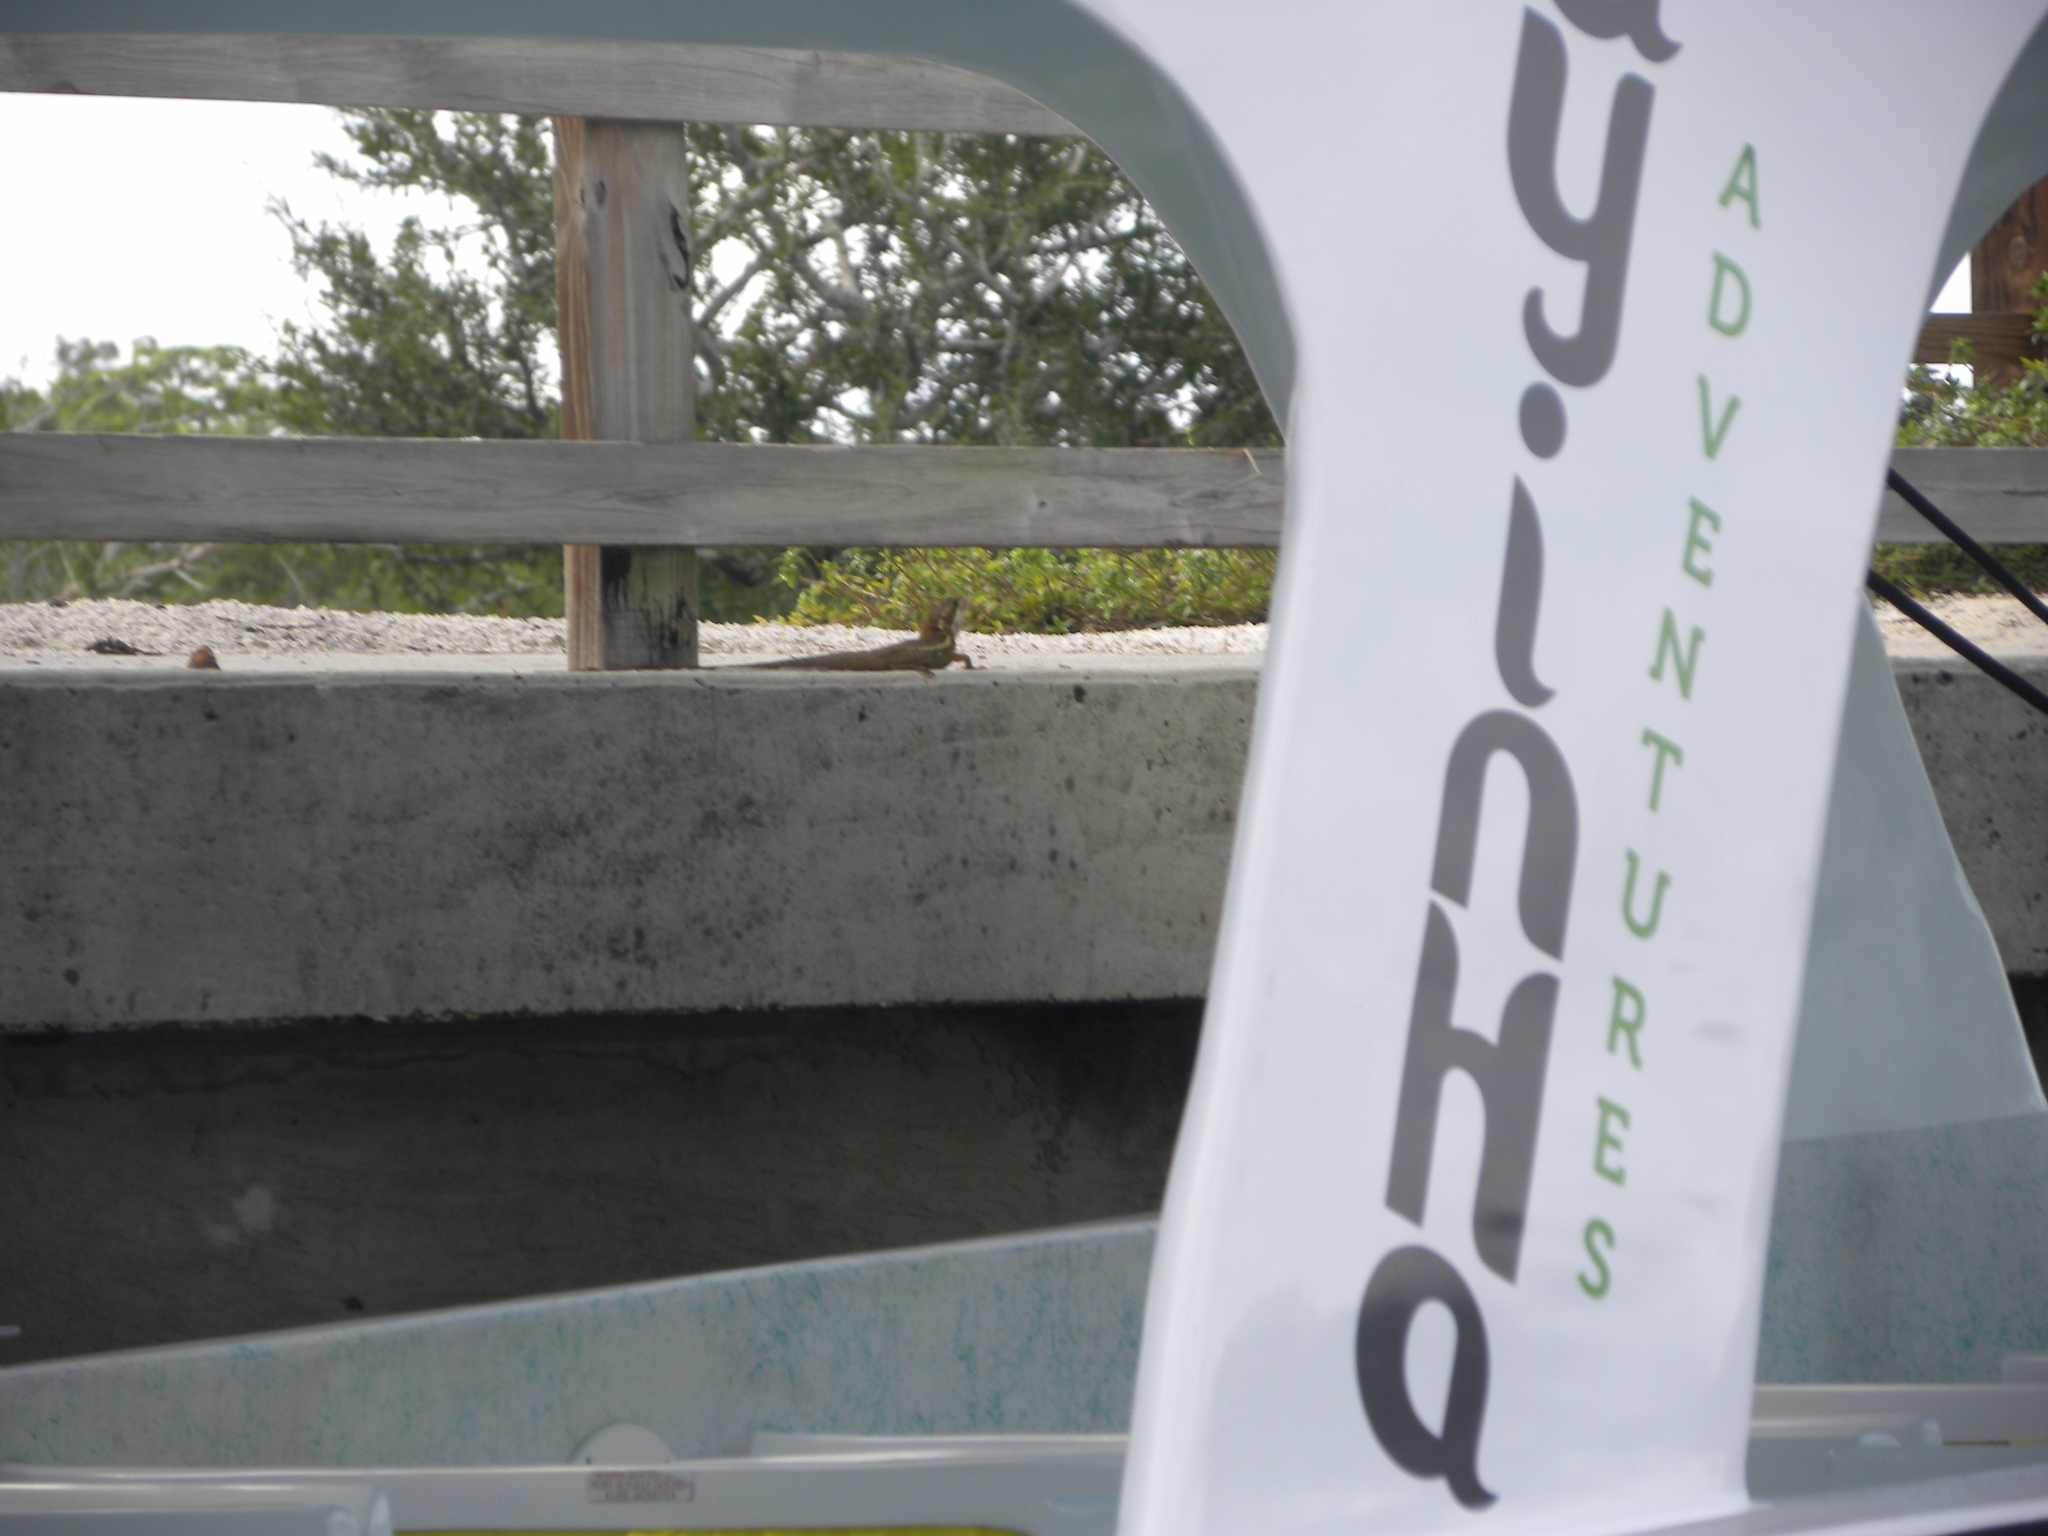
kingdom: Animalia
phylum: Chordata
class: Squamata
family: Corytophanidae
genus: Basiliscus
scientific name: Basiliscus vittatus
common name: Brown basilisk
